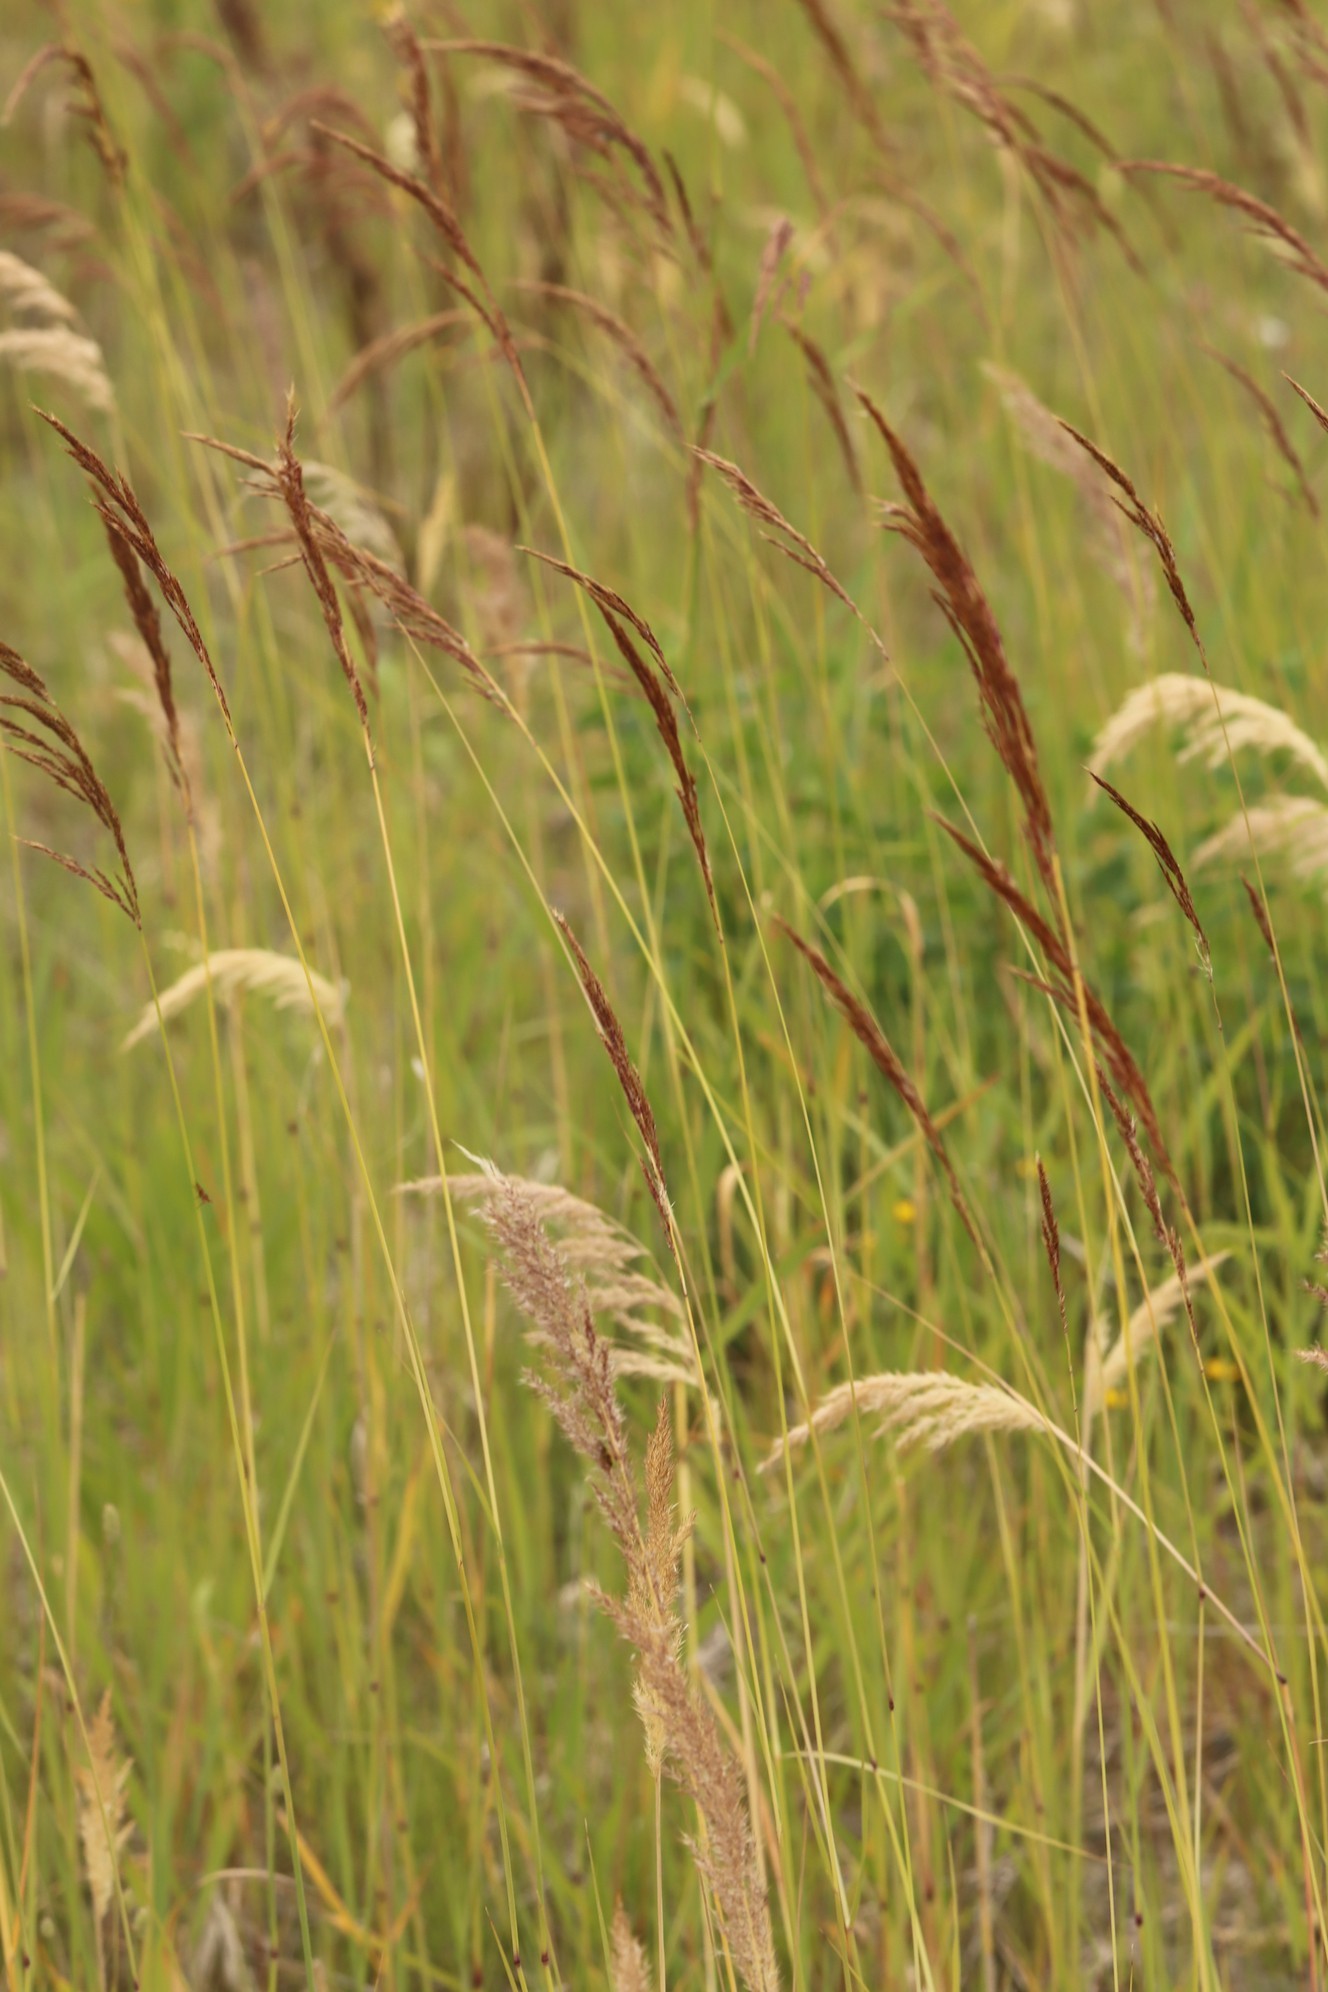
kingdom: Plantae
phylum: Tracheophyta
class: Liliopsida
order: Poales
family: Poaceae
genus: Calamagrostis
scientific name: Calamagrostis epigejos
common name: Wood small-reed
